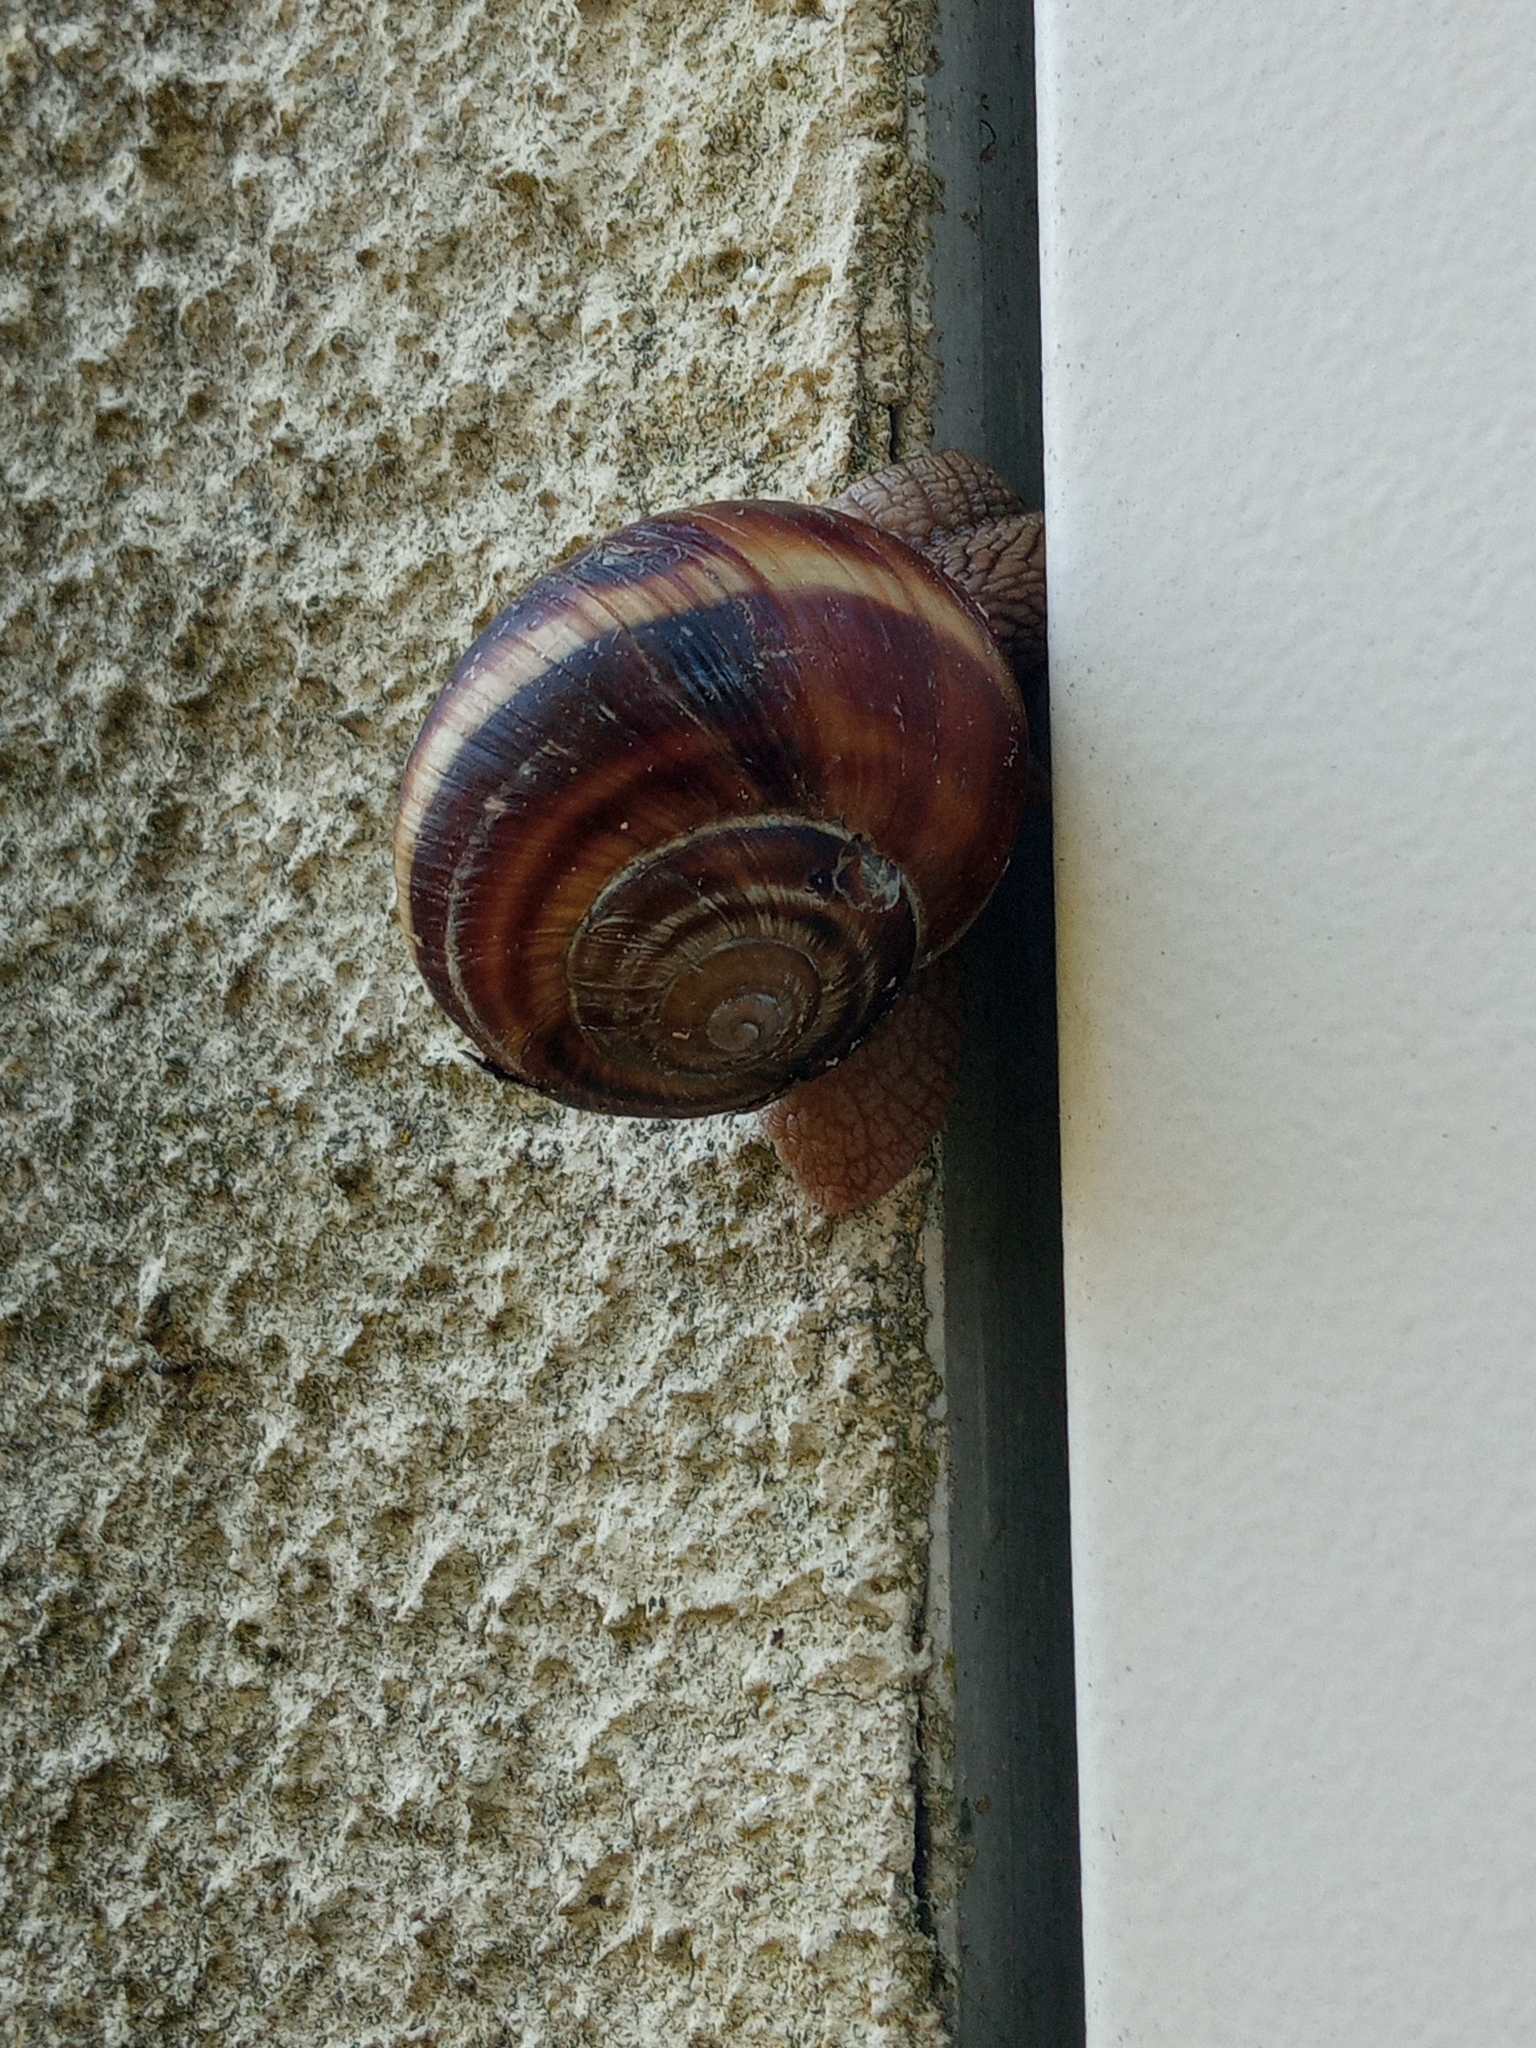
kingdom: Animalia
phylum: Mollusca
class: Gastropoda
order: Stylommatophora
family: Helicidae
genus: Helix
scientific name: Helix lucorum
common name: Turkish snail
